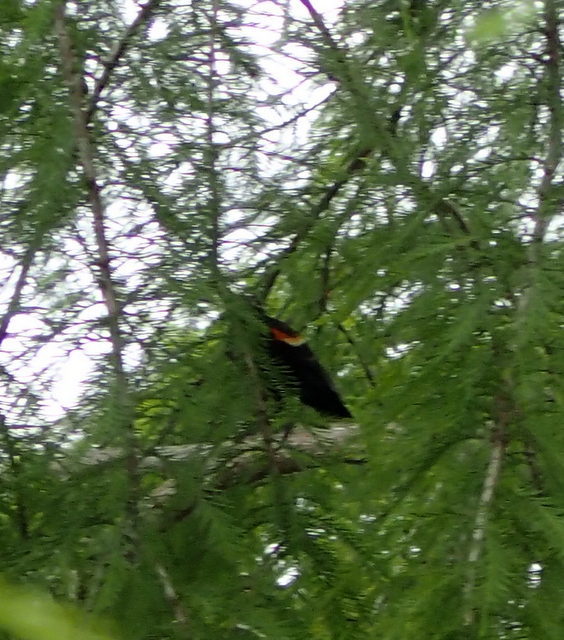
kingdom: Animalia
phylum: Chordata
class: Aves
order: Passeriformes
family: Icteridae
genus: Agelaius
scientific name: Agelaius phoeniceus
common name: Red-winged blackbird
